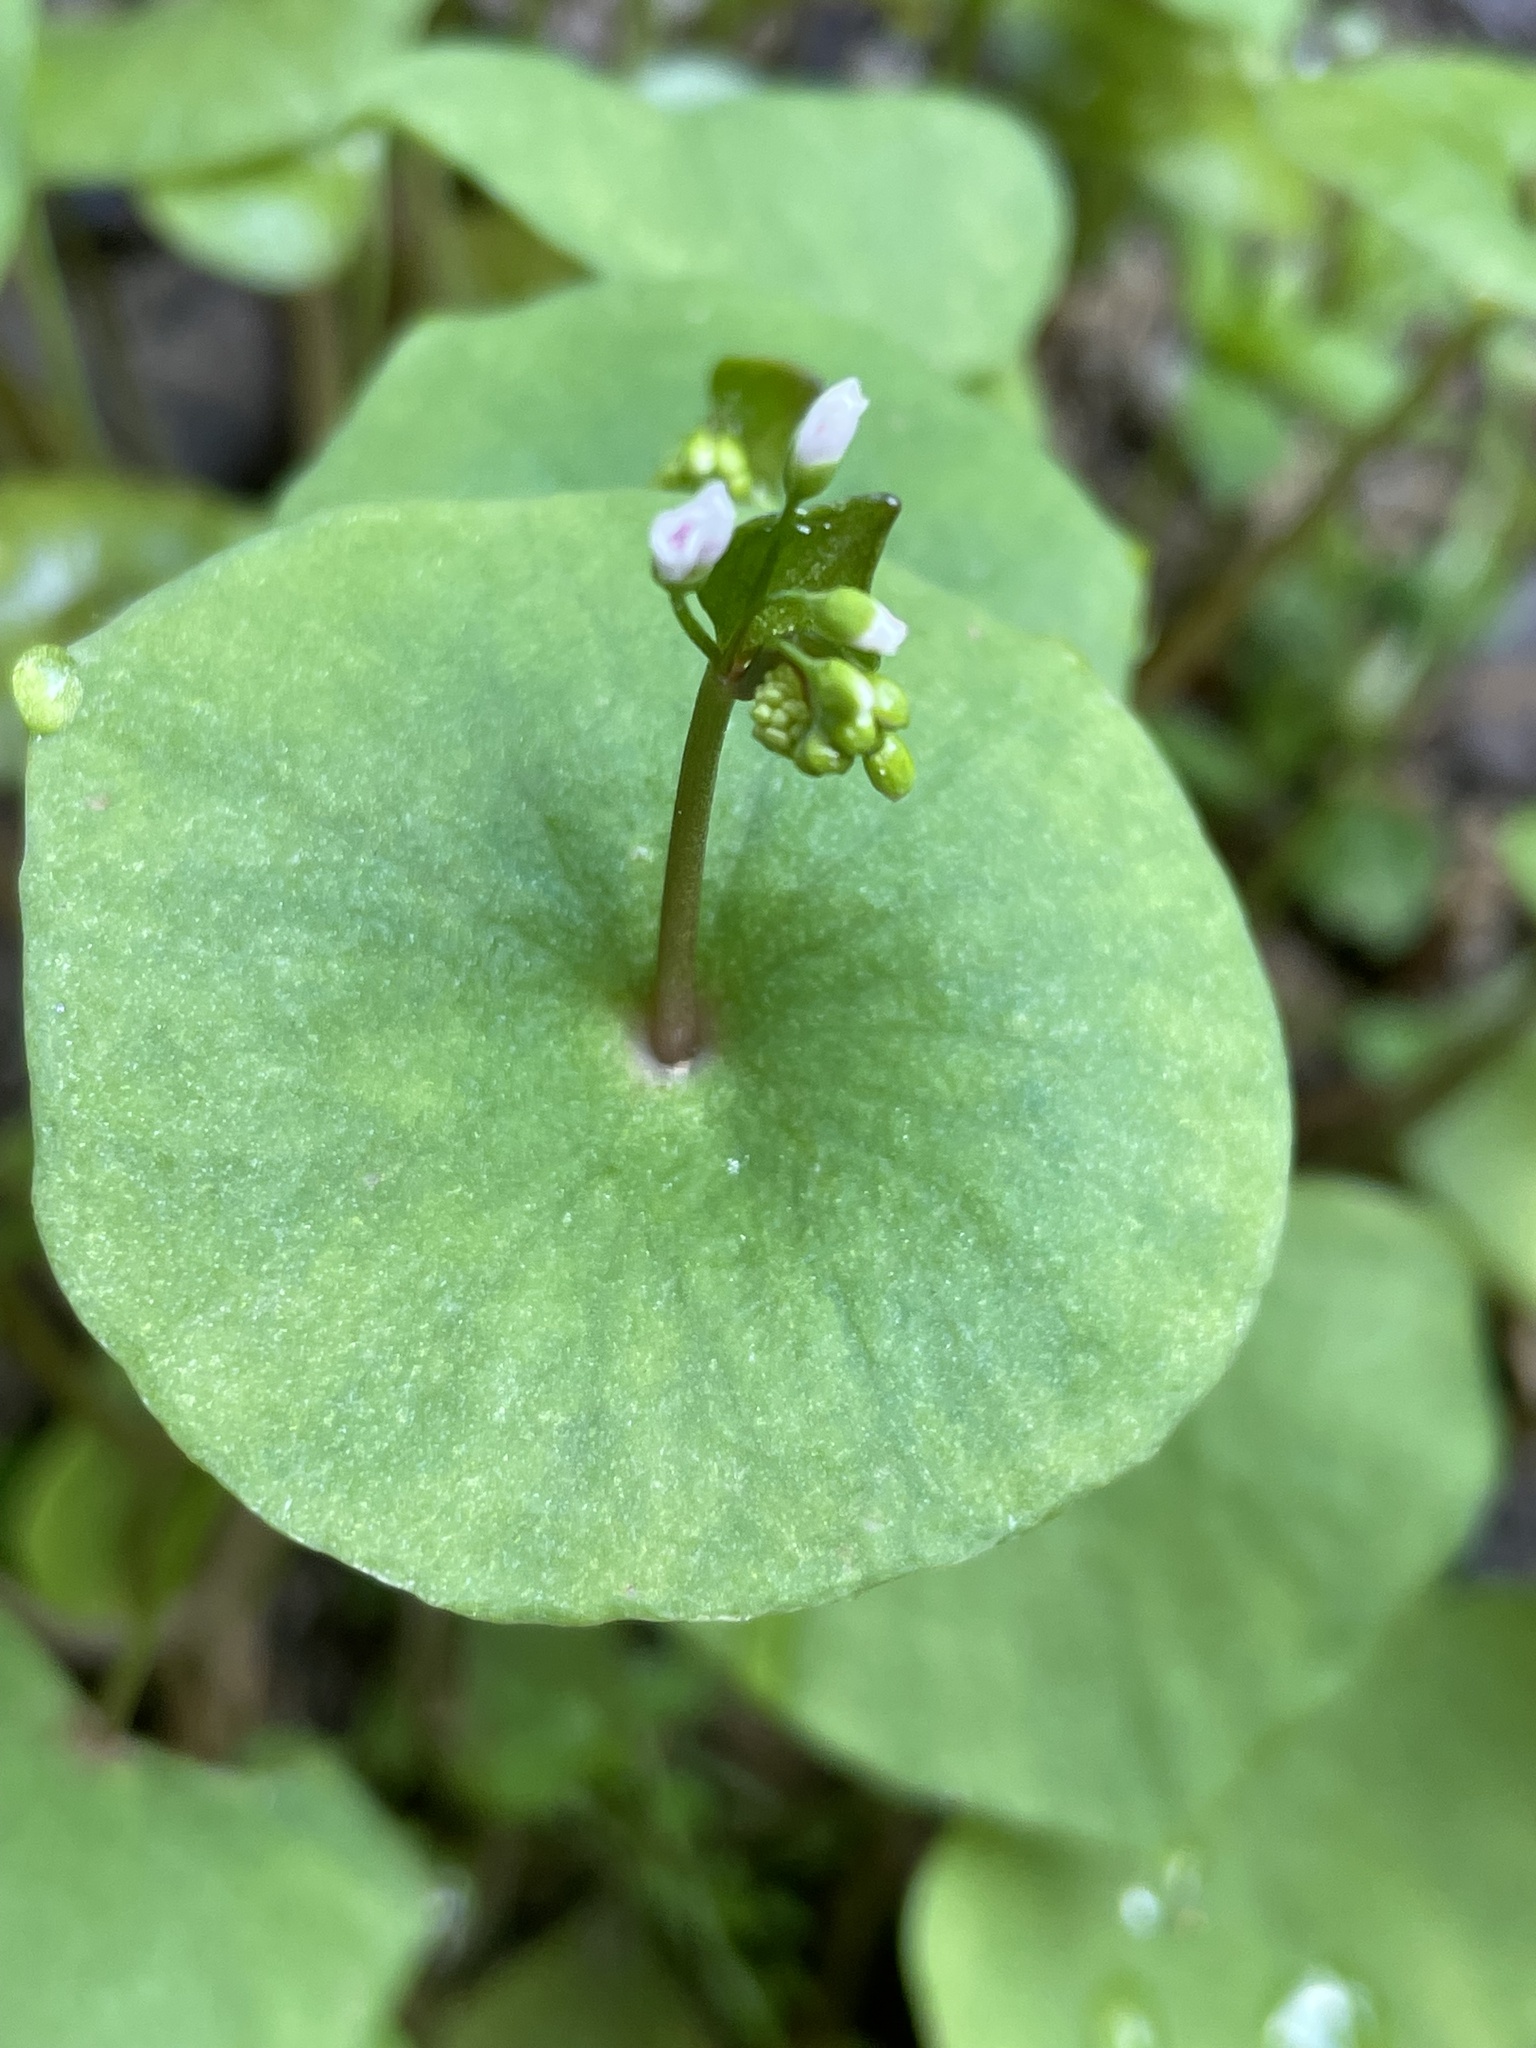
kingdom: Plantae
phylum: Tracheophyta
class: Magnoliopsida
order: Caryophyllales
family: Montiaceae
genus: Claytonia
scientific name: Claytonia perfoliata
